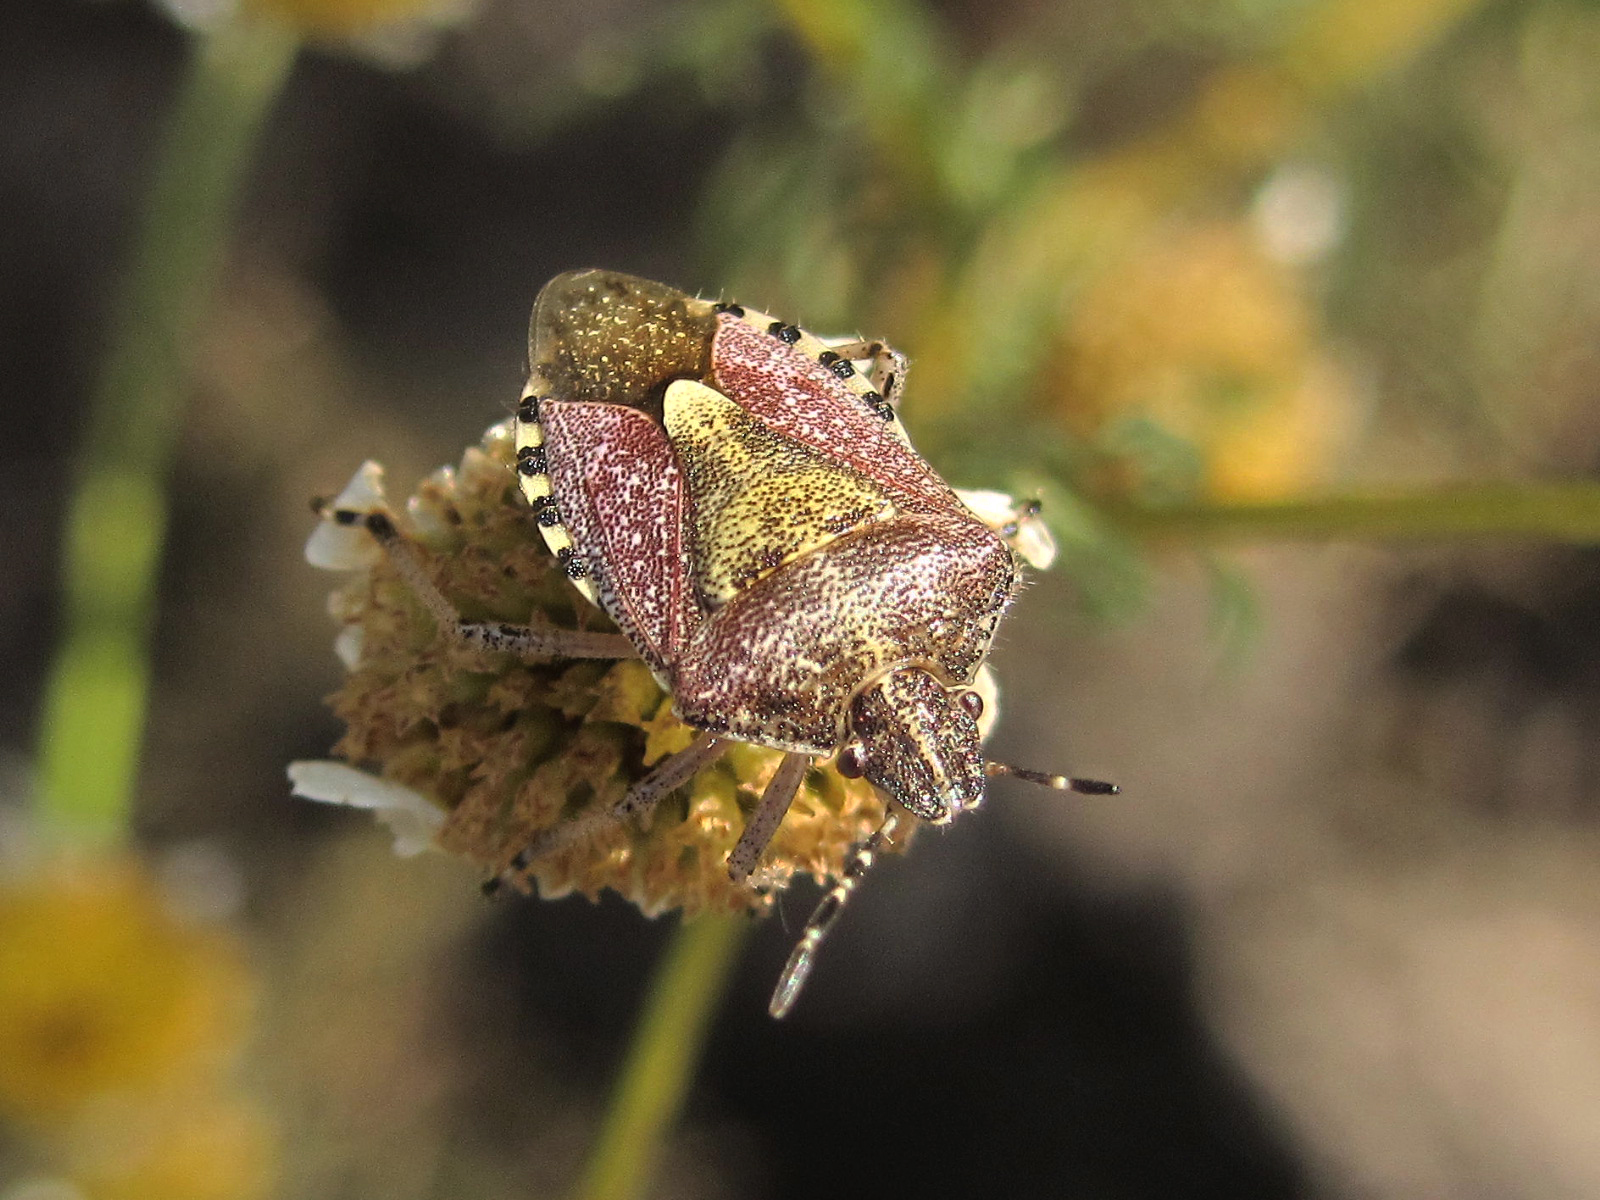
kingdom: Animalia
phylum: Arthropoda
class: Insecta
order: Hemiptera
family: Pentatomidae
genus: Dolycoris
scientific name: Dolycoris baccarum
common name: Sloe bug
